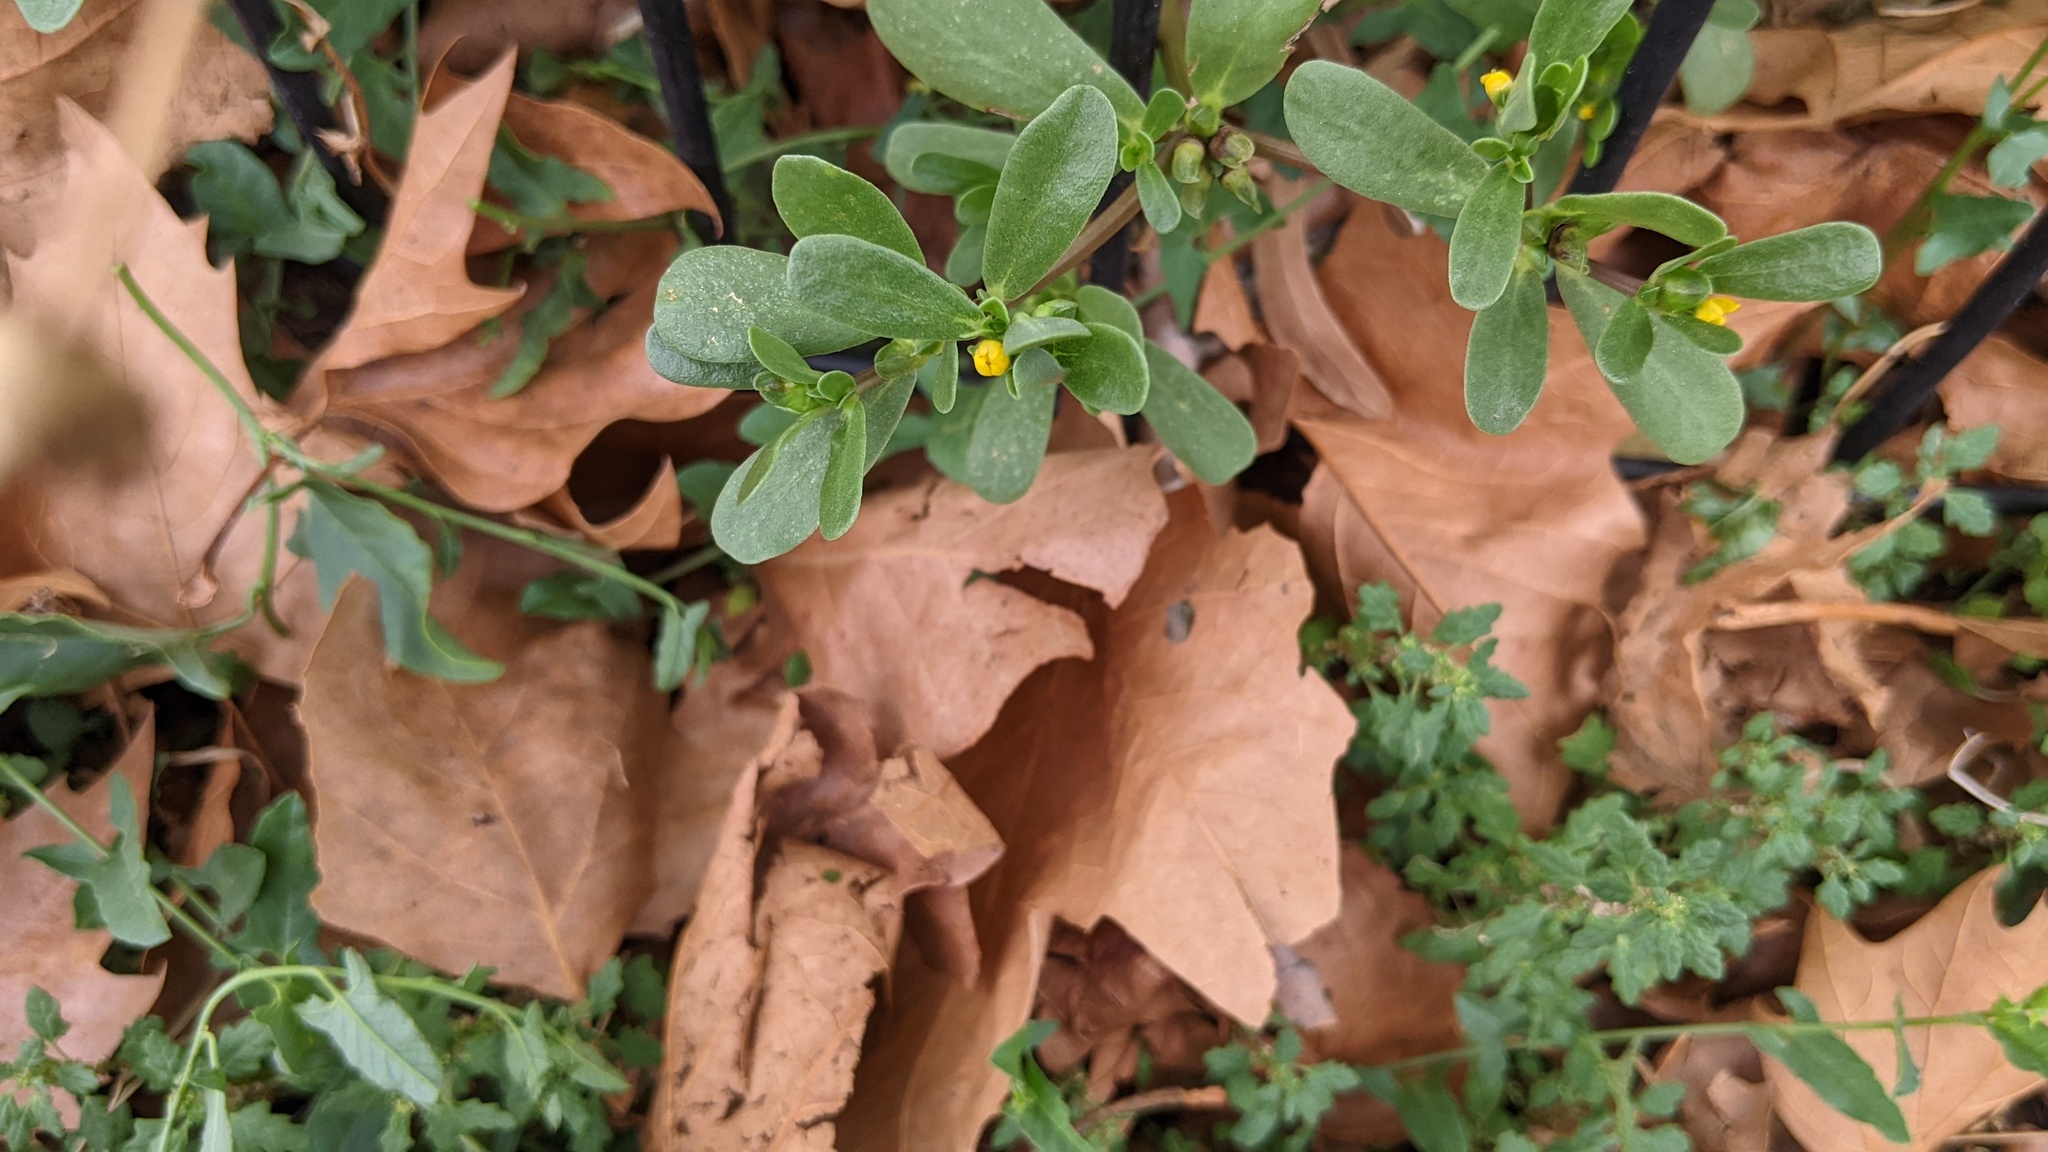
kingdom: Plantae
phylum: Tracheophyta
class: Magnoliopsida
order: Caryophyllales
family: Portulacaceae
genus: Portulaca
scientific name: Portulaca oleracea
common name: Common purslane
